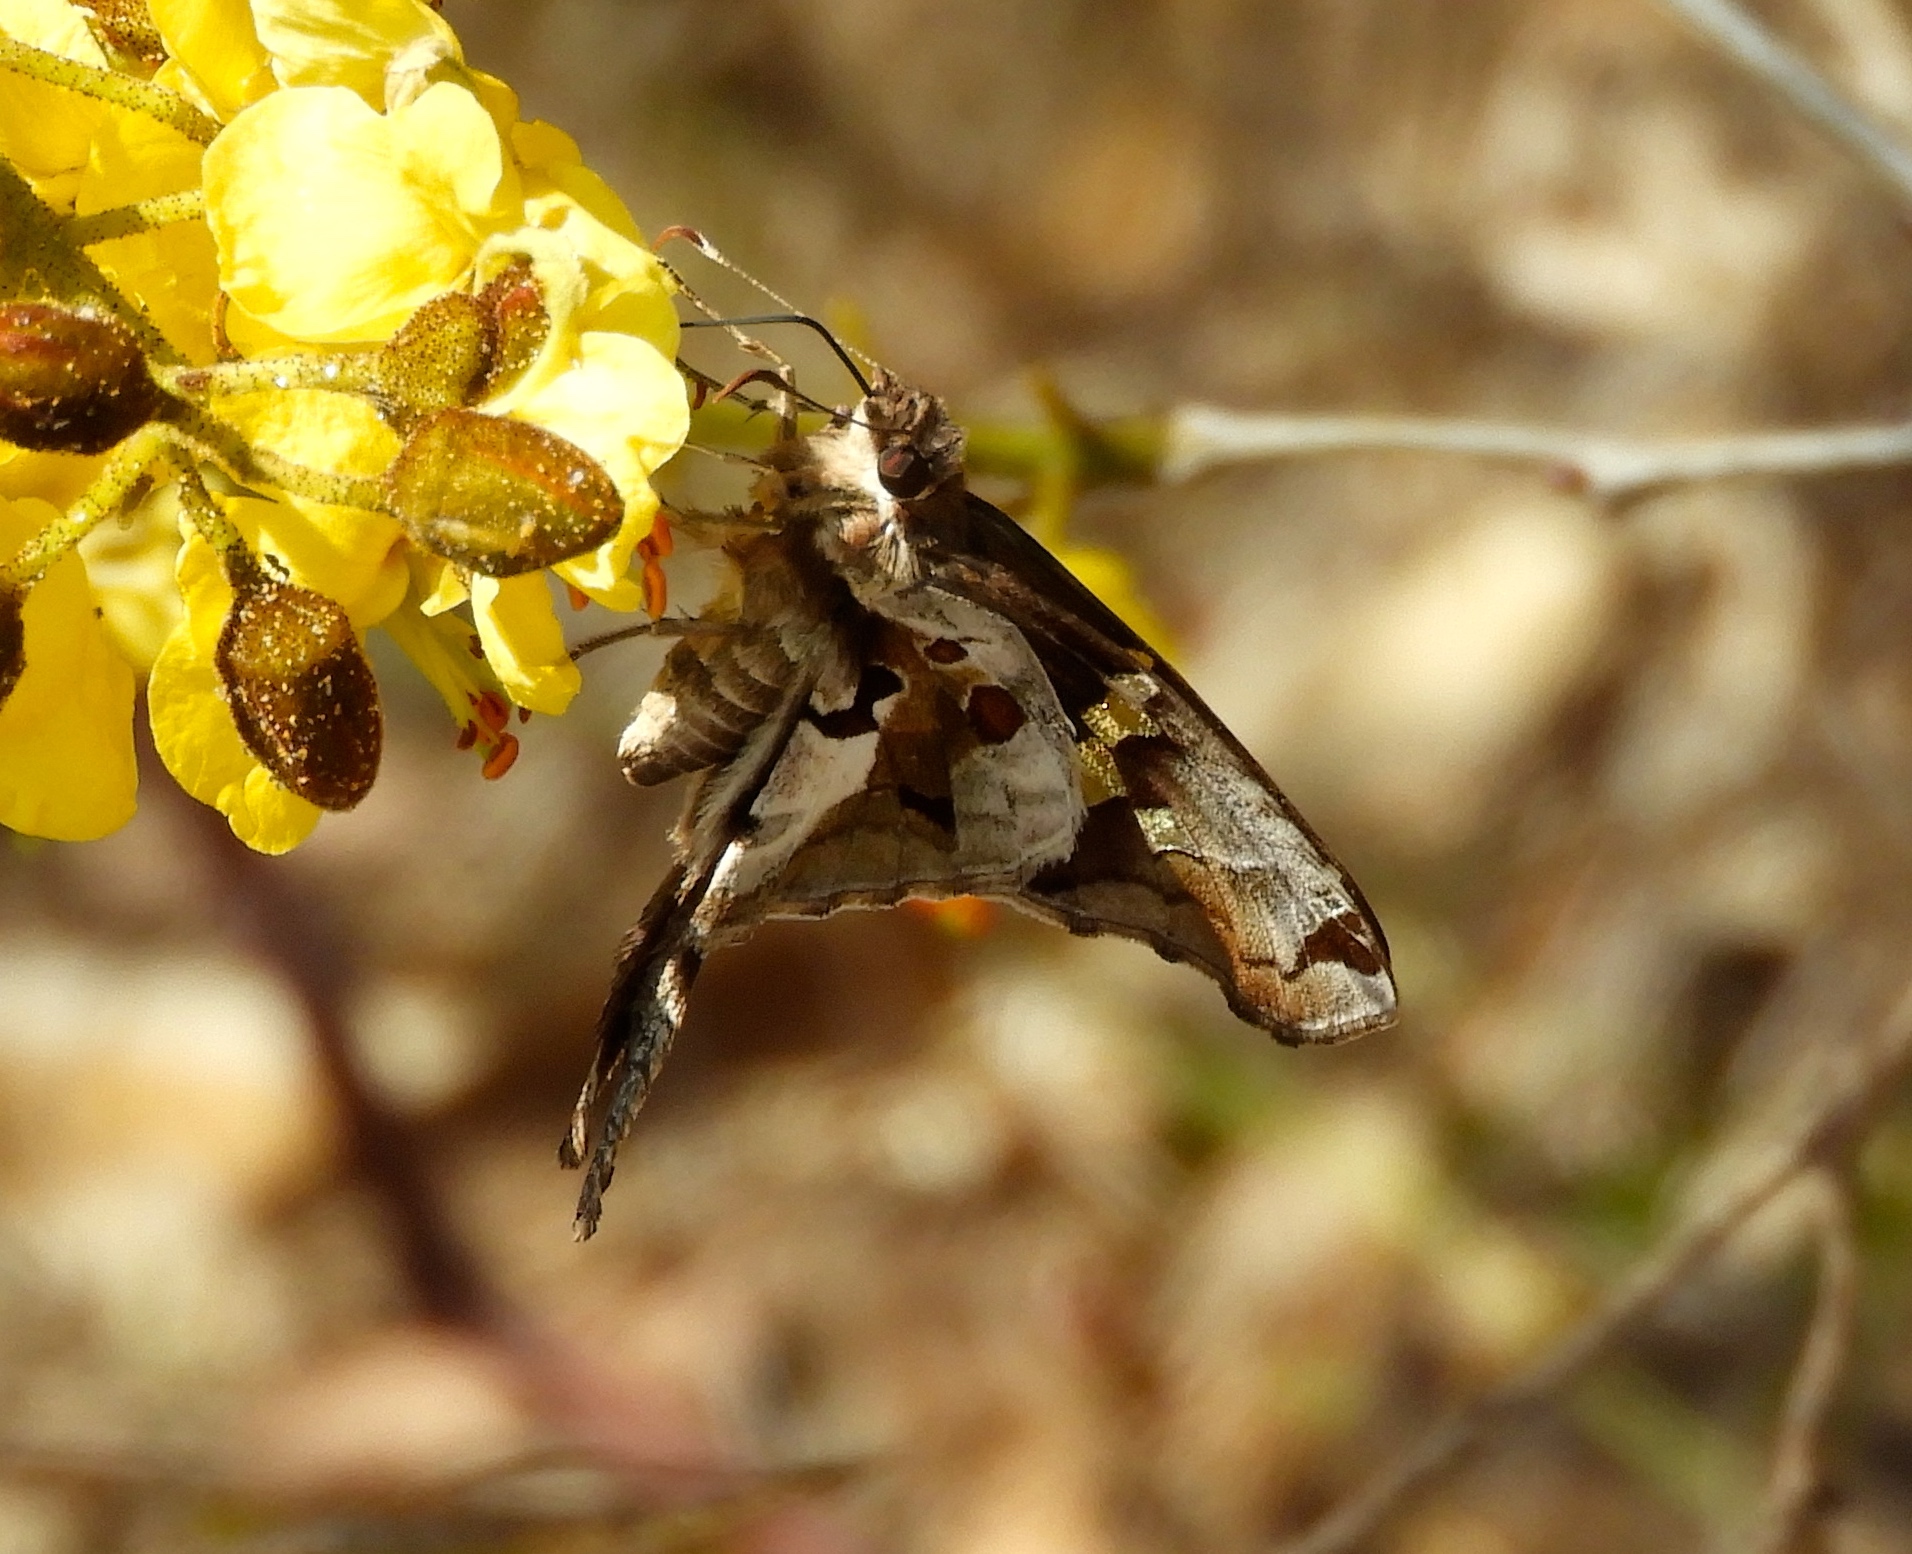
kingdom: Animalia
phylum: Arthropoda
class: Insecta
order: Lepidoptera
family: Hesperiidae
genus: Chioides
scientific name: Chioides zilpa
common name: Zilpa longtail
